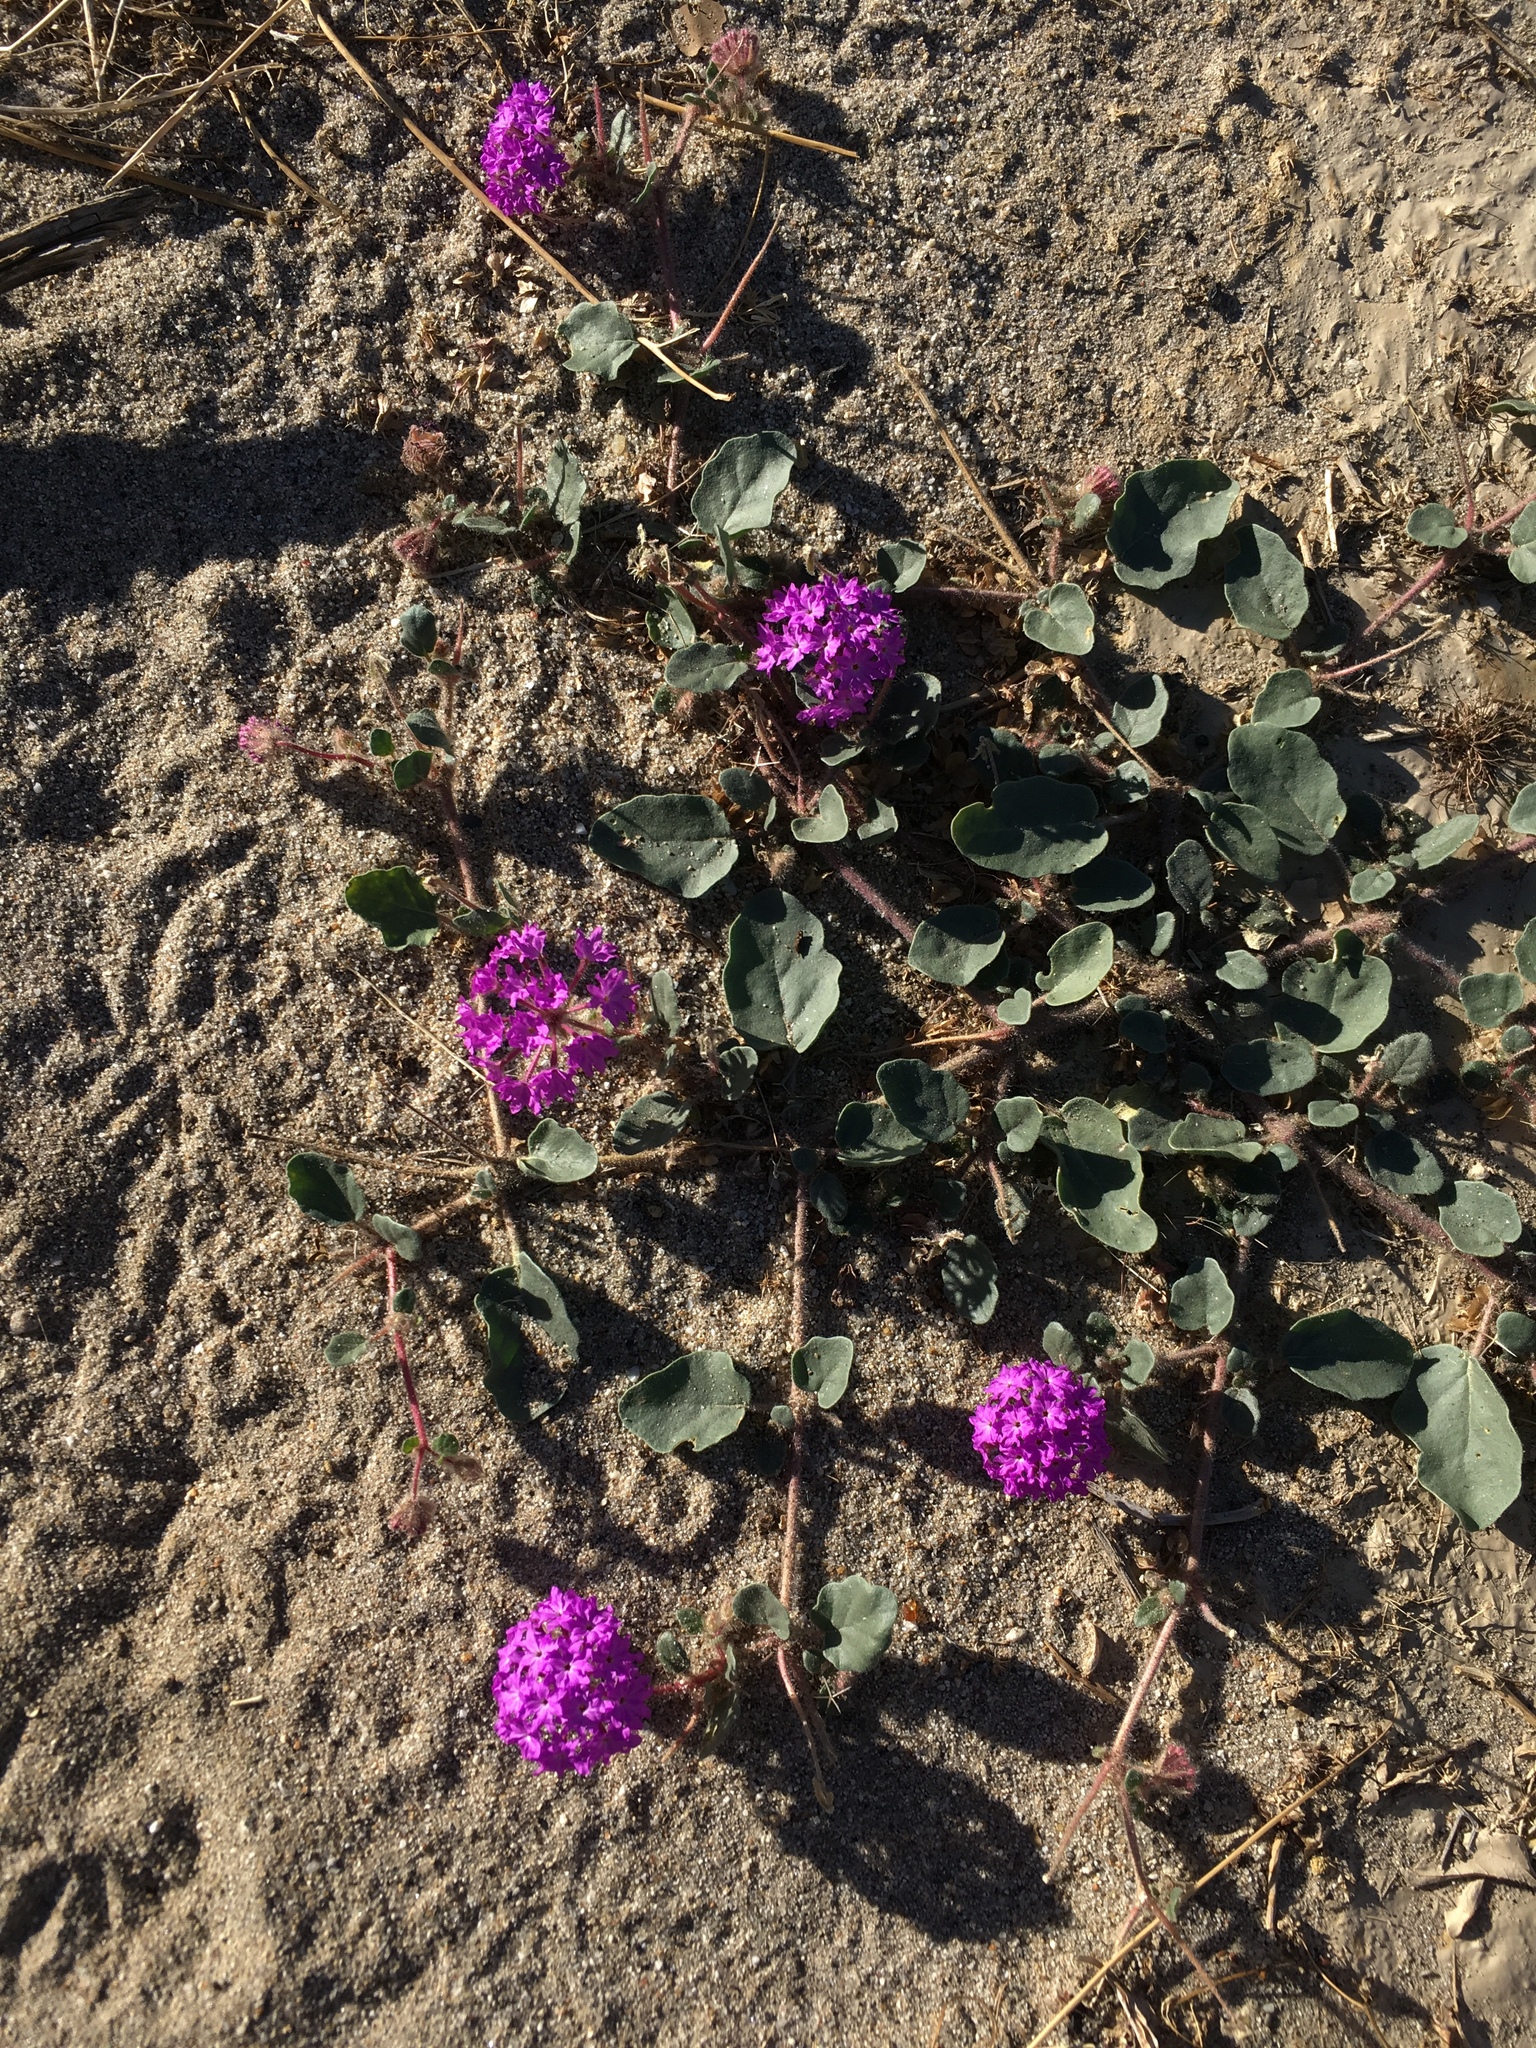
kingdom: Plantae
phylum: Tracheophyta
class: Magnoliopsida
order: Caryophyllales
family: Nyctaginaceae
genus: Abronia
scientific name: Abronia villosa
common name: Desert sand-verbena
